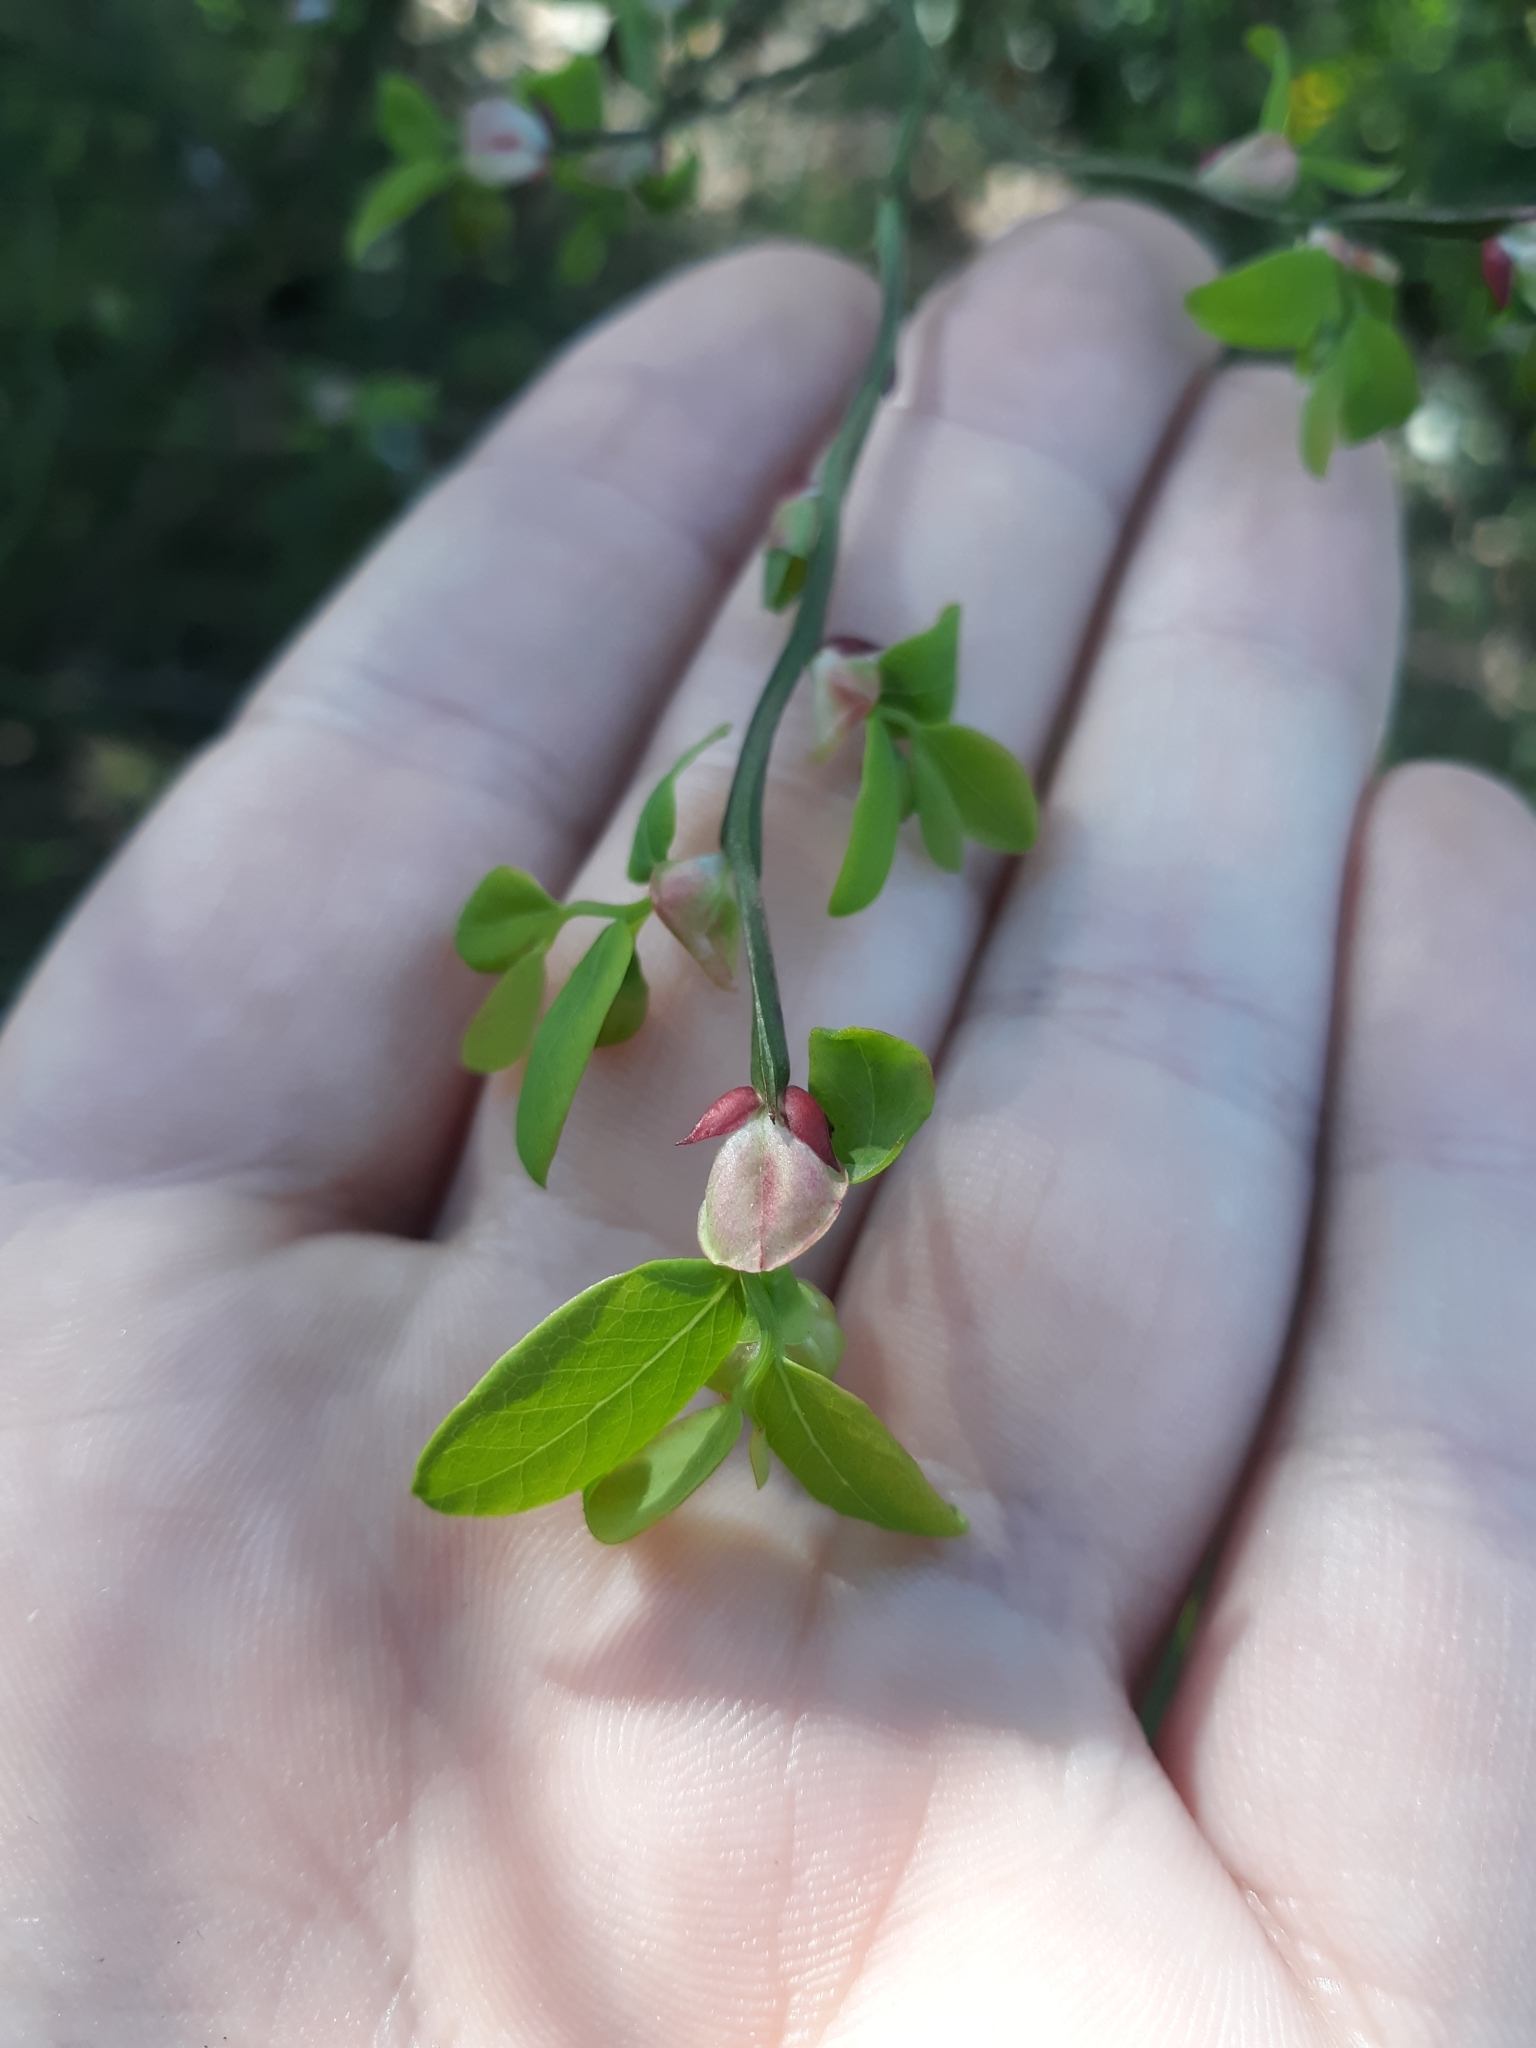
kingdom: Plantae
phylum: Tracheophyta
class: Magnoliopsida
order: Ericales
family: Ericaceae
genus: Vaccinium
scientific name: Vaccinium parvifolium
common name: Red-huckleberry
